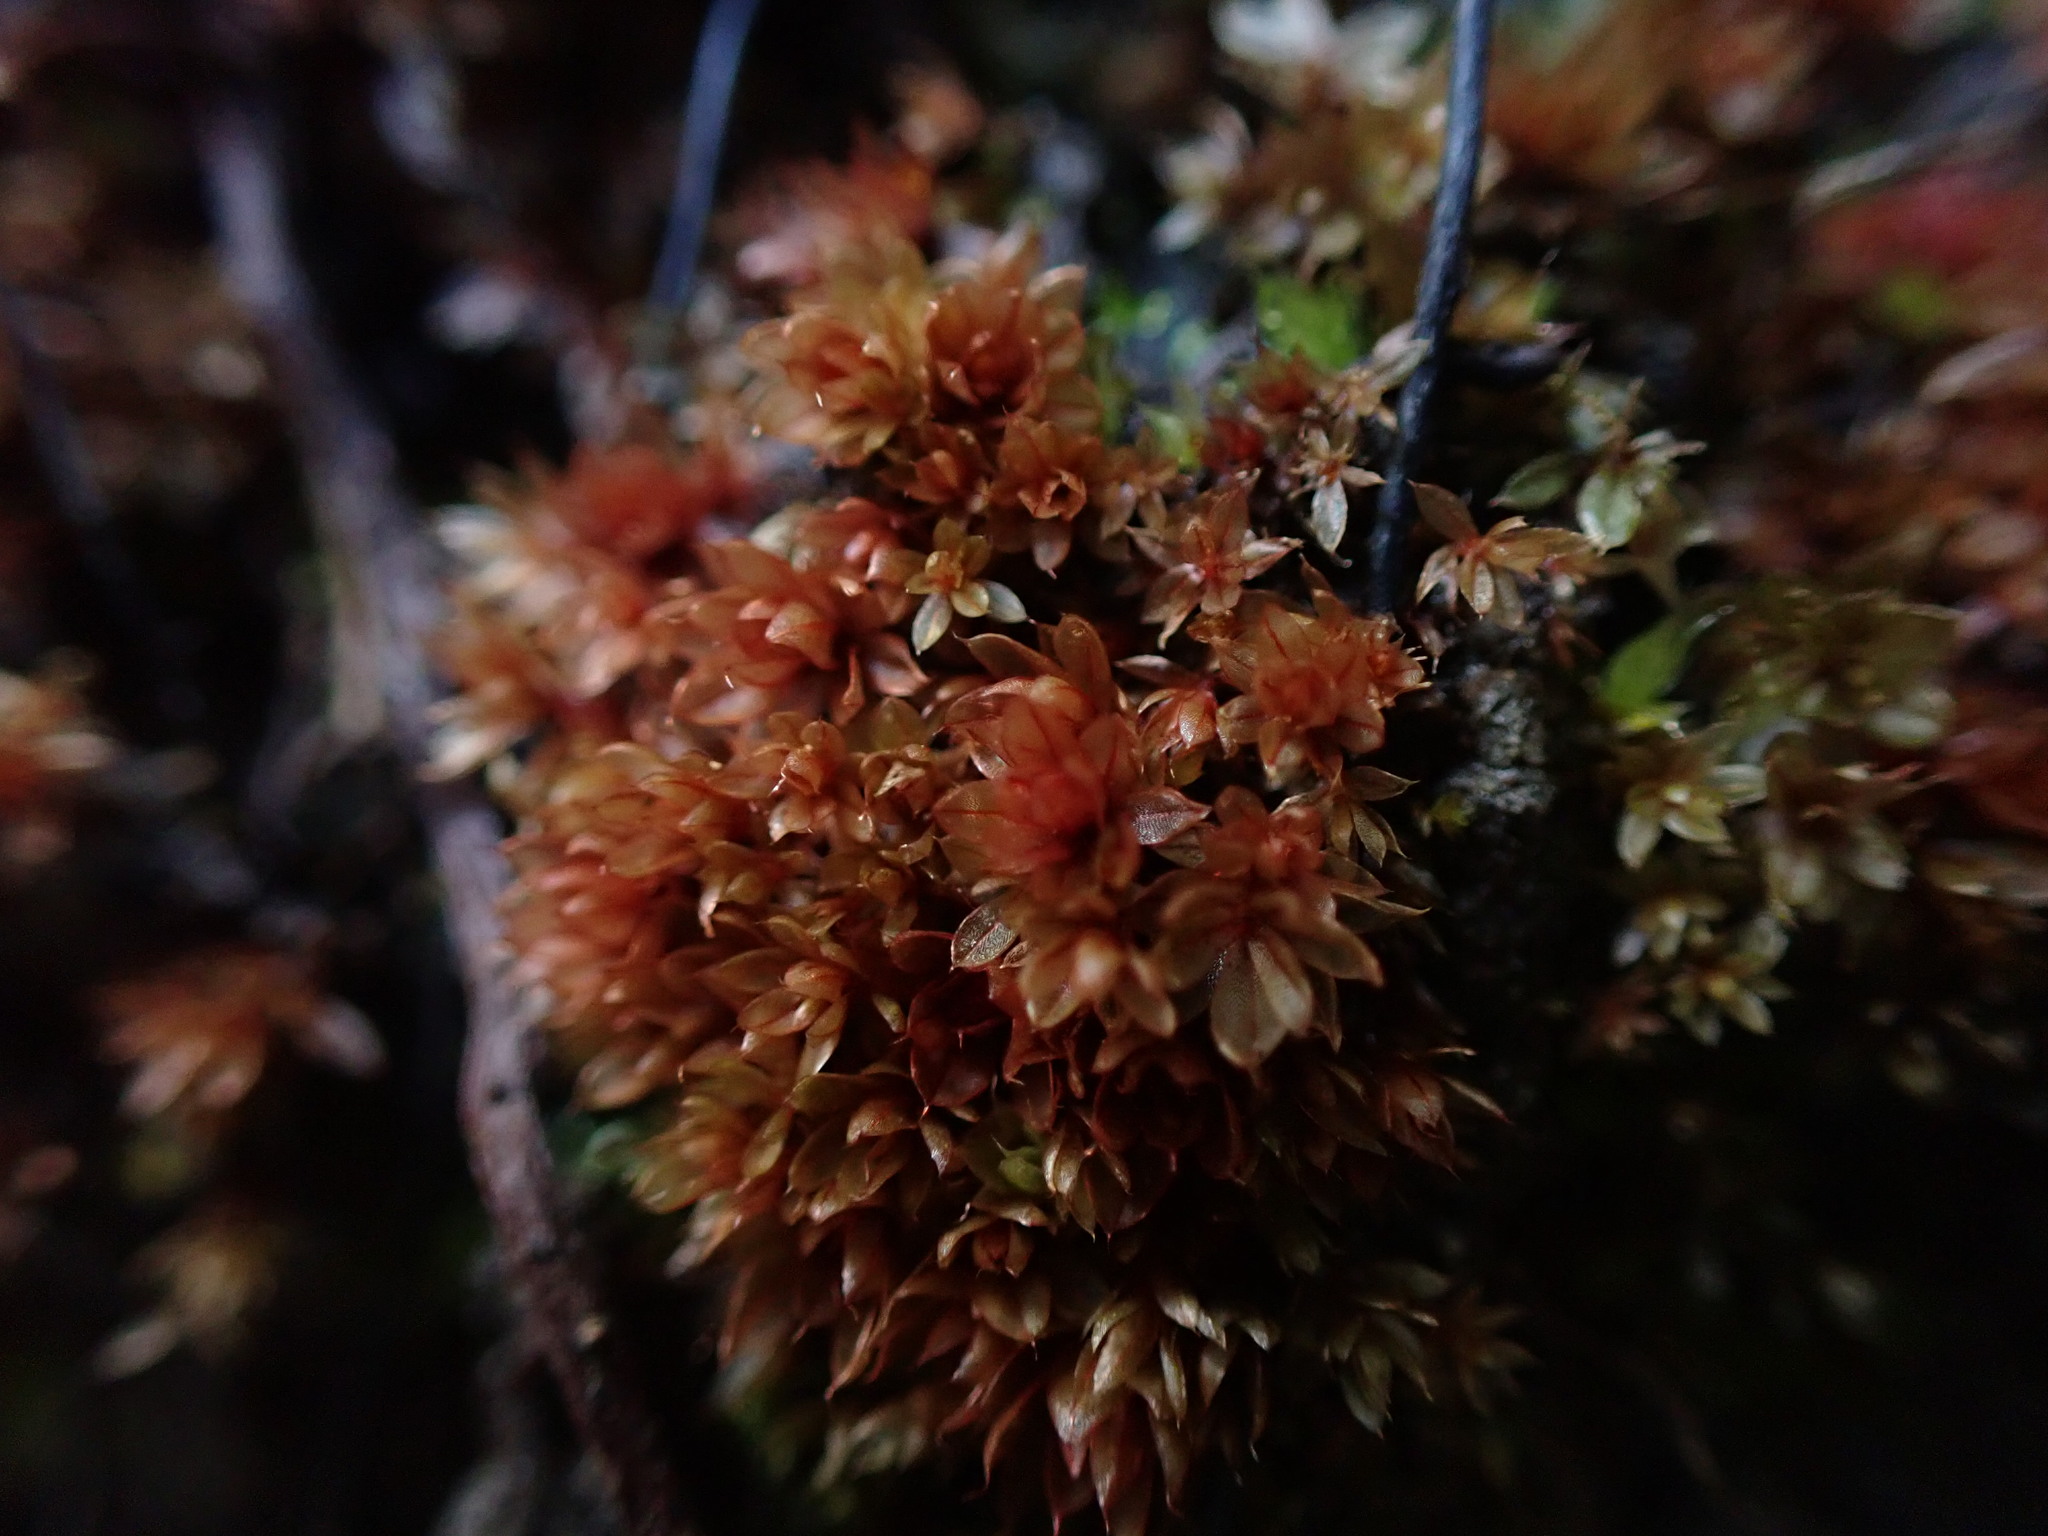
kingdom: Plantae
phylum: Bryophyta
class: Bryopsida
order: Bryales
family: Bryaceae
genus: Rosulabryum
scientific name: Rosulabryum capillare
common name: Capillary thread-moss
